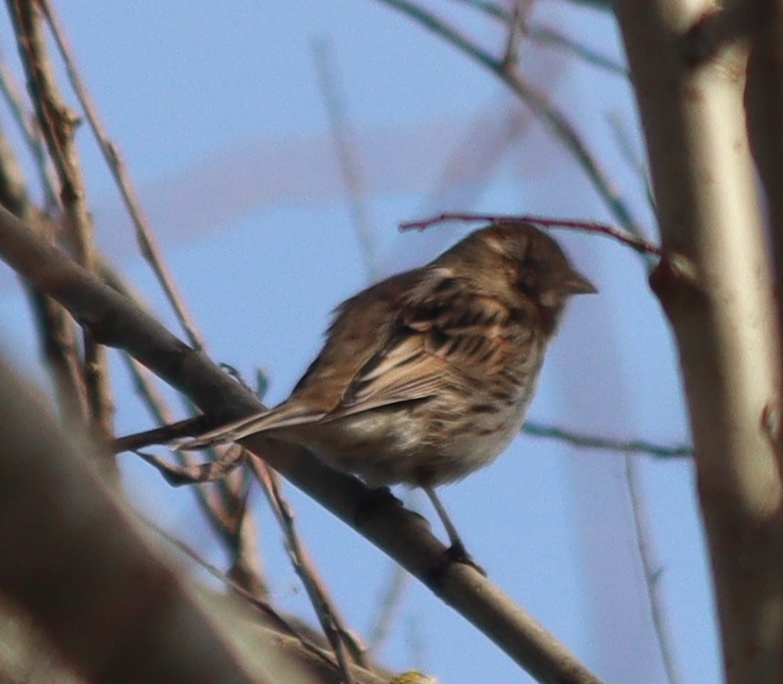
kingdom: Animalia
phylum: Chordata
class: Aves
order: Passeriformes
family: Emberizidae
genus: Emberiza
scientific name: Emberiza schoeniclus
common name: Reed bunting
